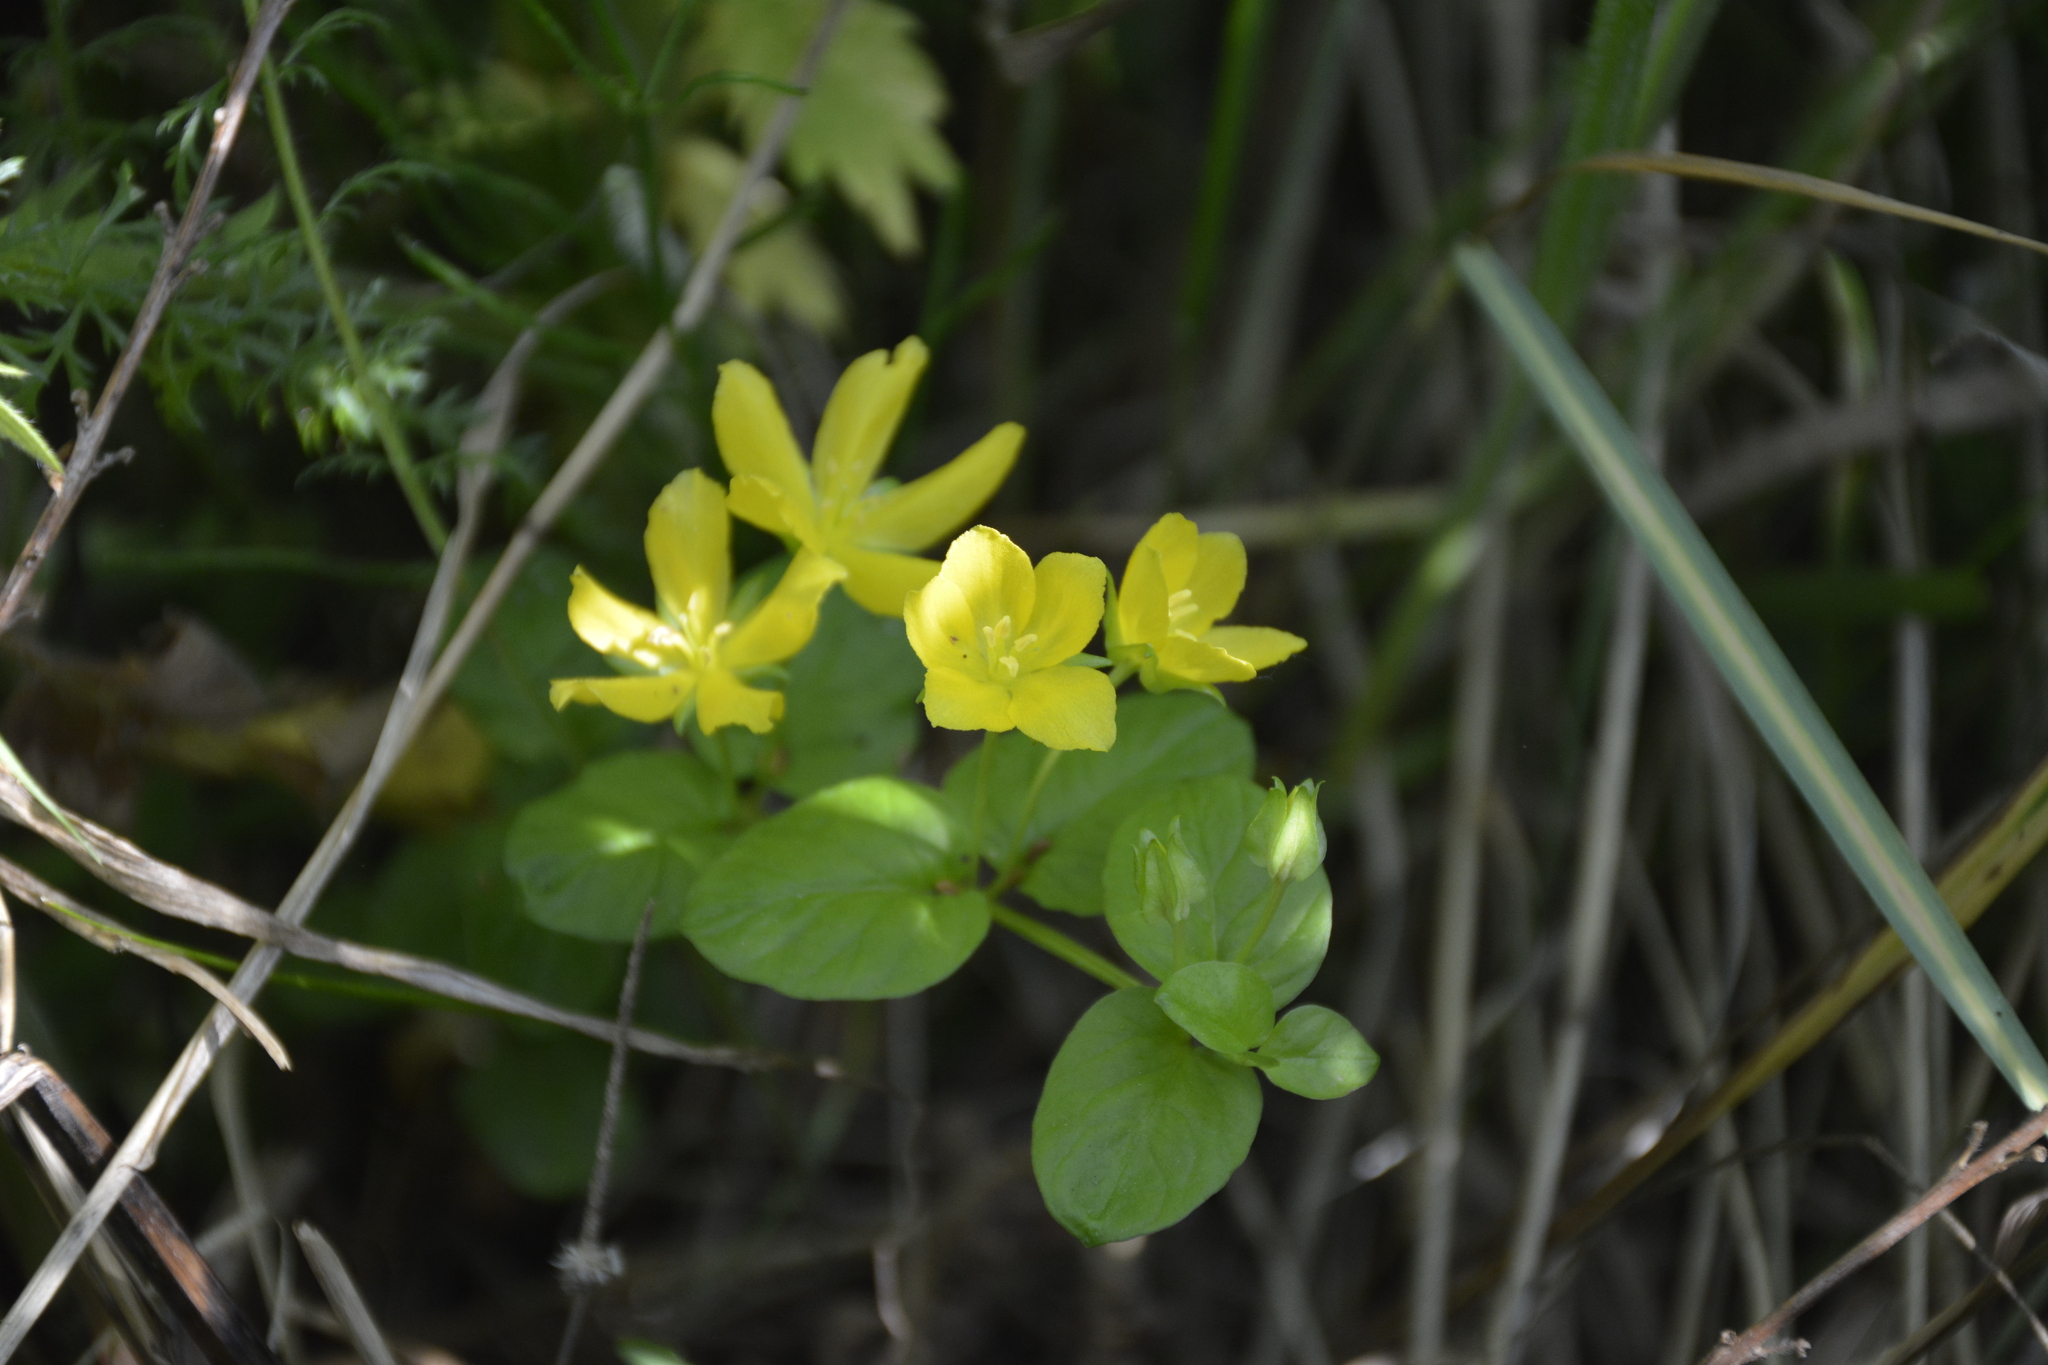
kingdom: Plantae
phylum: Tracheophyta
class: Magnoliopsida
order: Ericales
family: Primulaceae
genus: Lysimachia
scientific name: Lysimachia nummularia
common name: Moneywort
